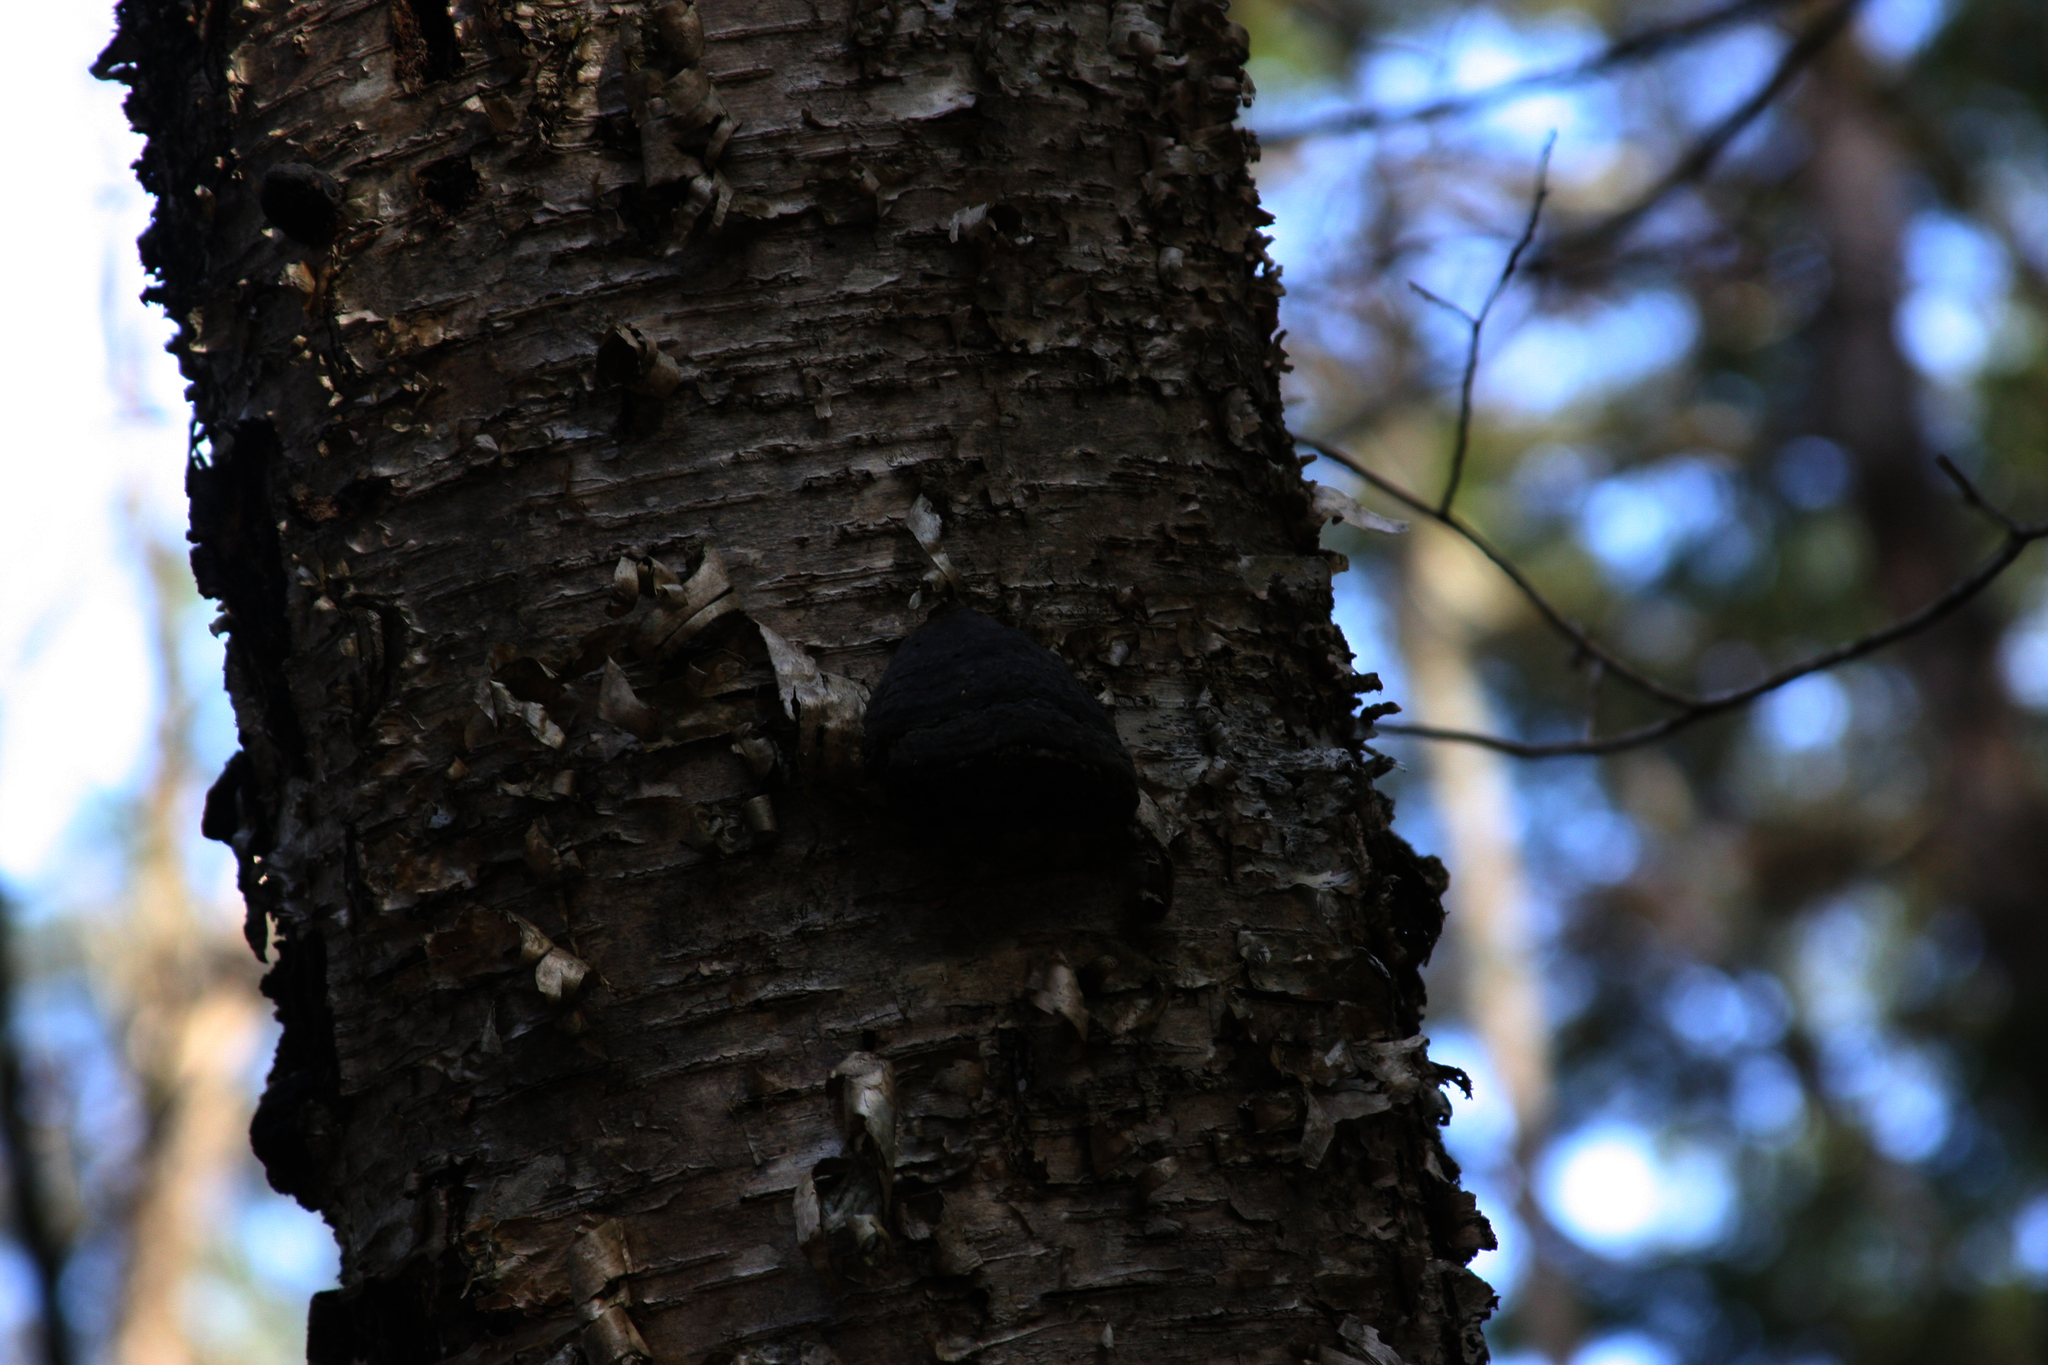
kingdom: Plantae
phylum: Tracheophyta
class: Magnoliopsida
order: Fagales
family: Betulaceae
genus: Betula
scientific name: Betula alleghaniensis
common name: Yellow birch
